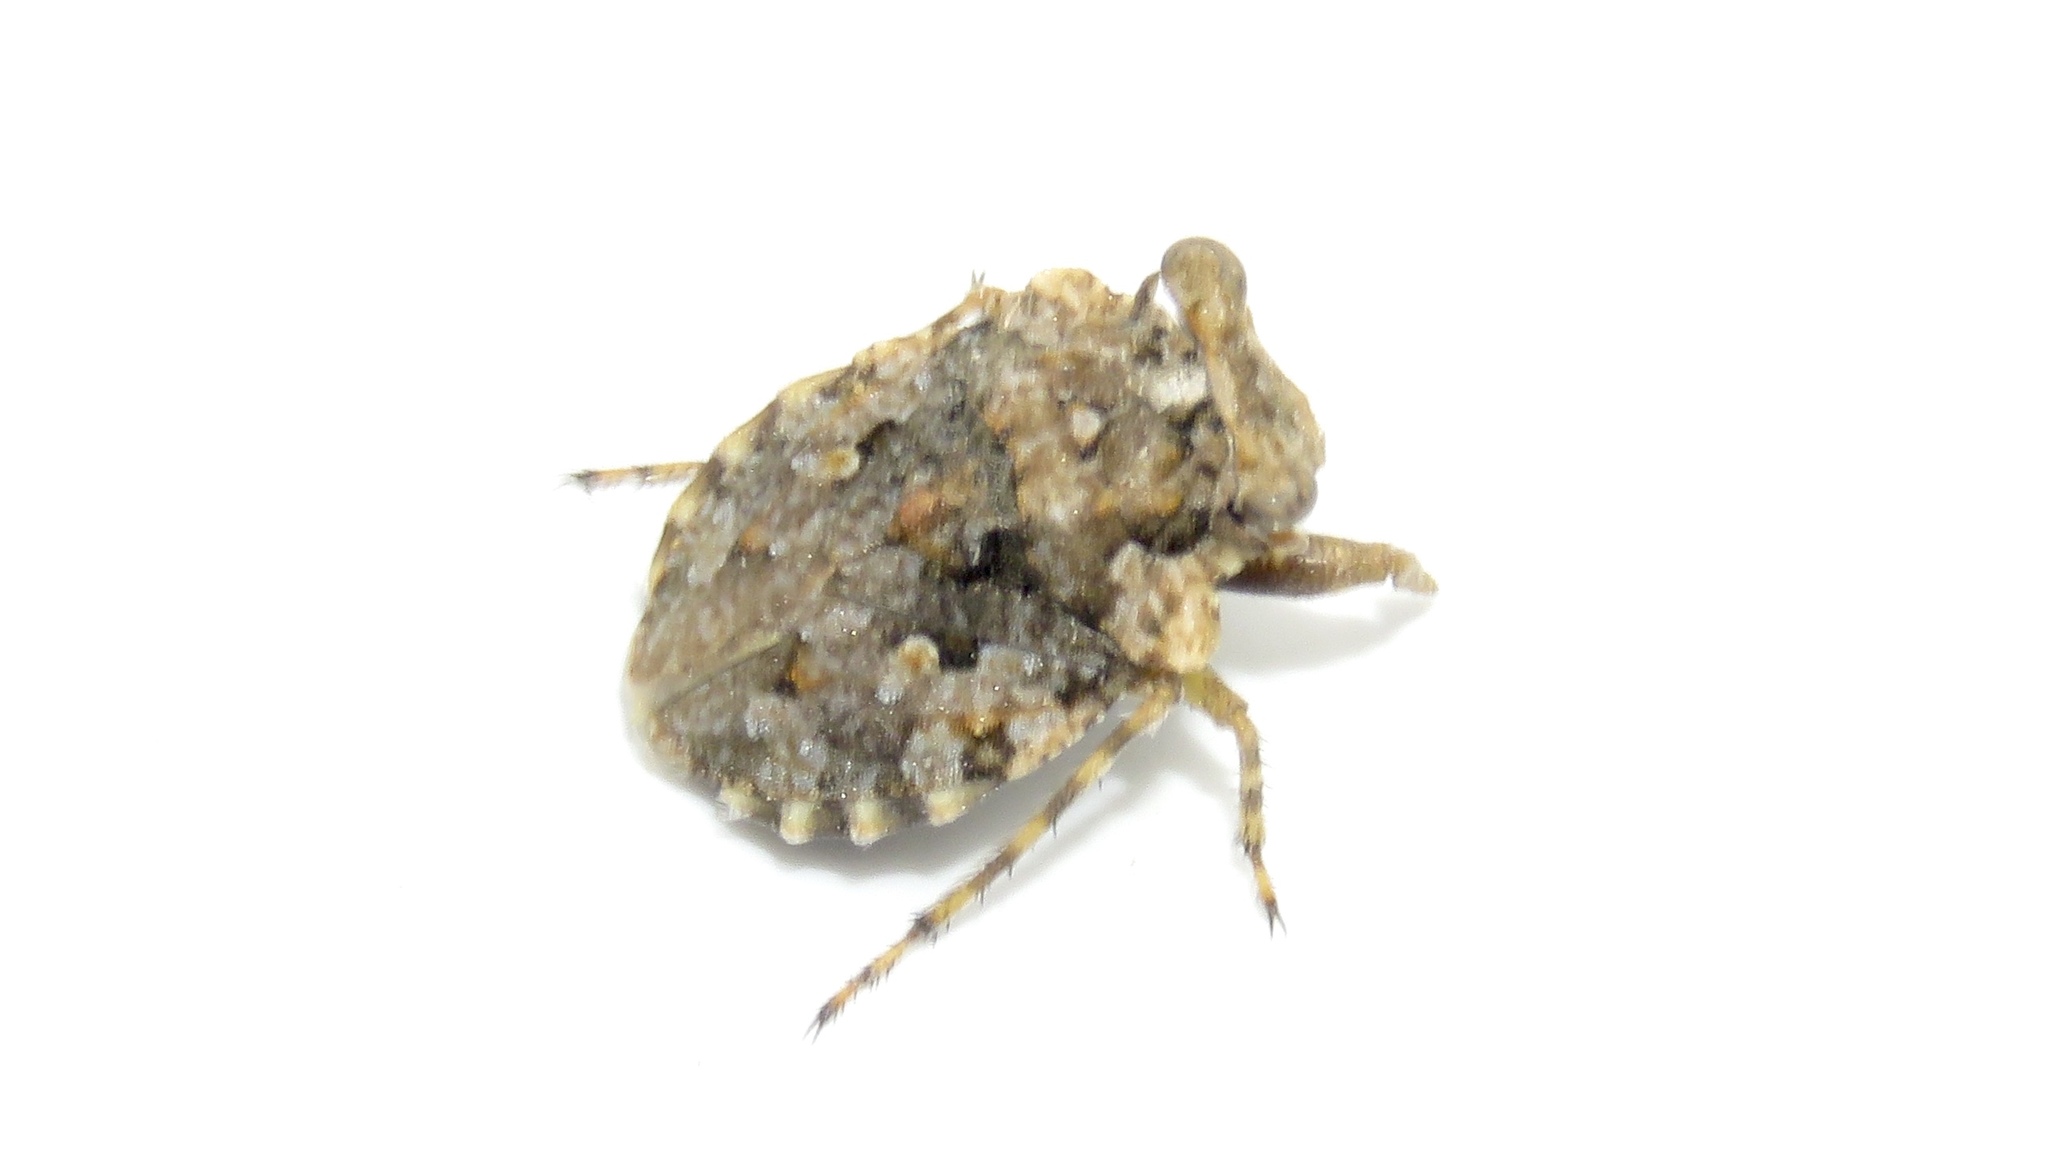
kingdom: Animalia
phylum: Arthropoda
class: Insecta
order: Hemiptera
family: Gelastocoridae
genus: Gelastocoris
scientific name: Gelastocoris oculatus
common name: Toad bug
